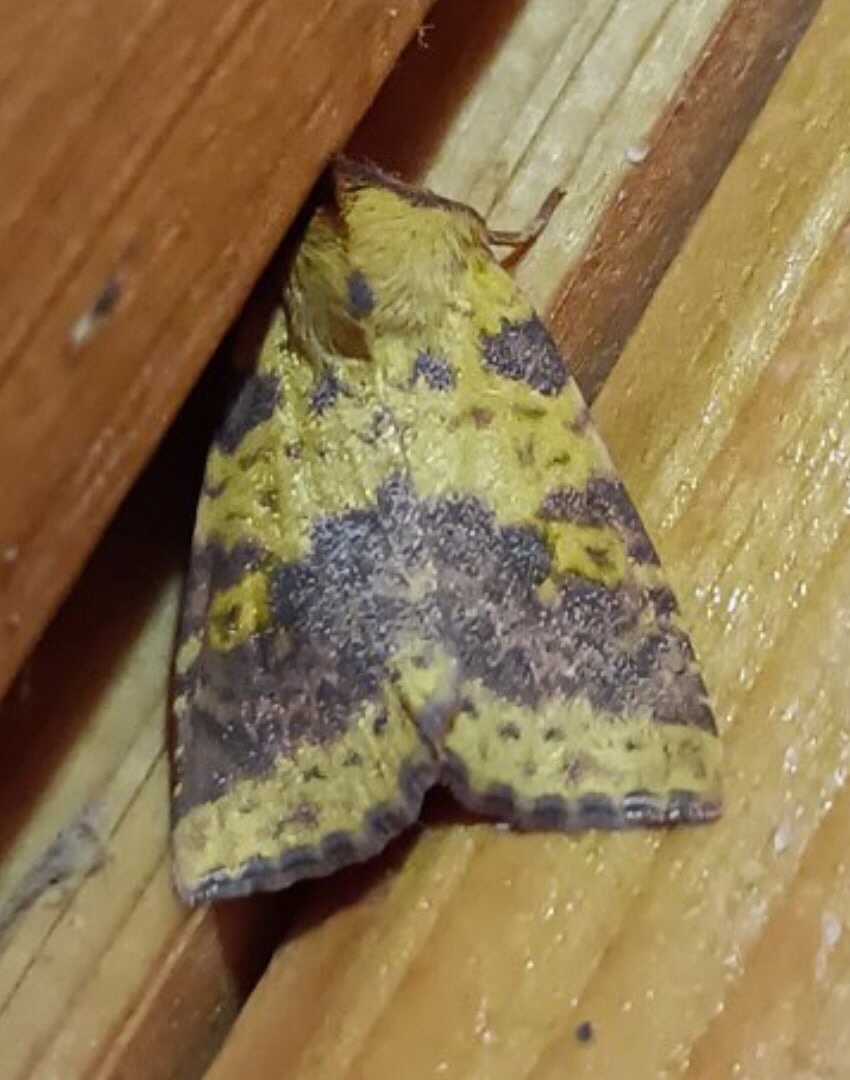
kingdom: Animalia
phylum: Arthropoda
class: Insecta
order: Lepidoptera
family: Noctuidae
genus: Xanthia
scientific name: Xanthia togata
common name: Pink-barred sallow
